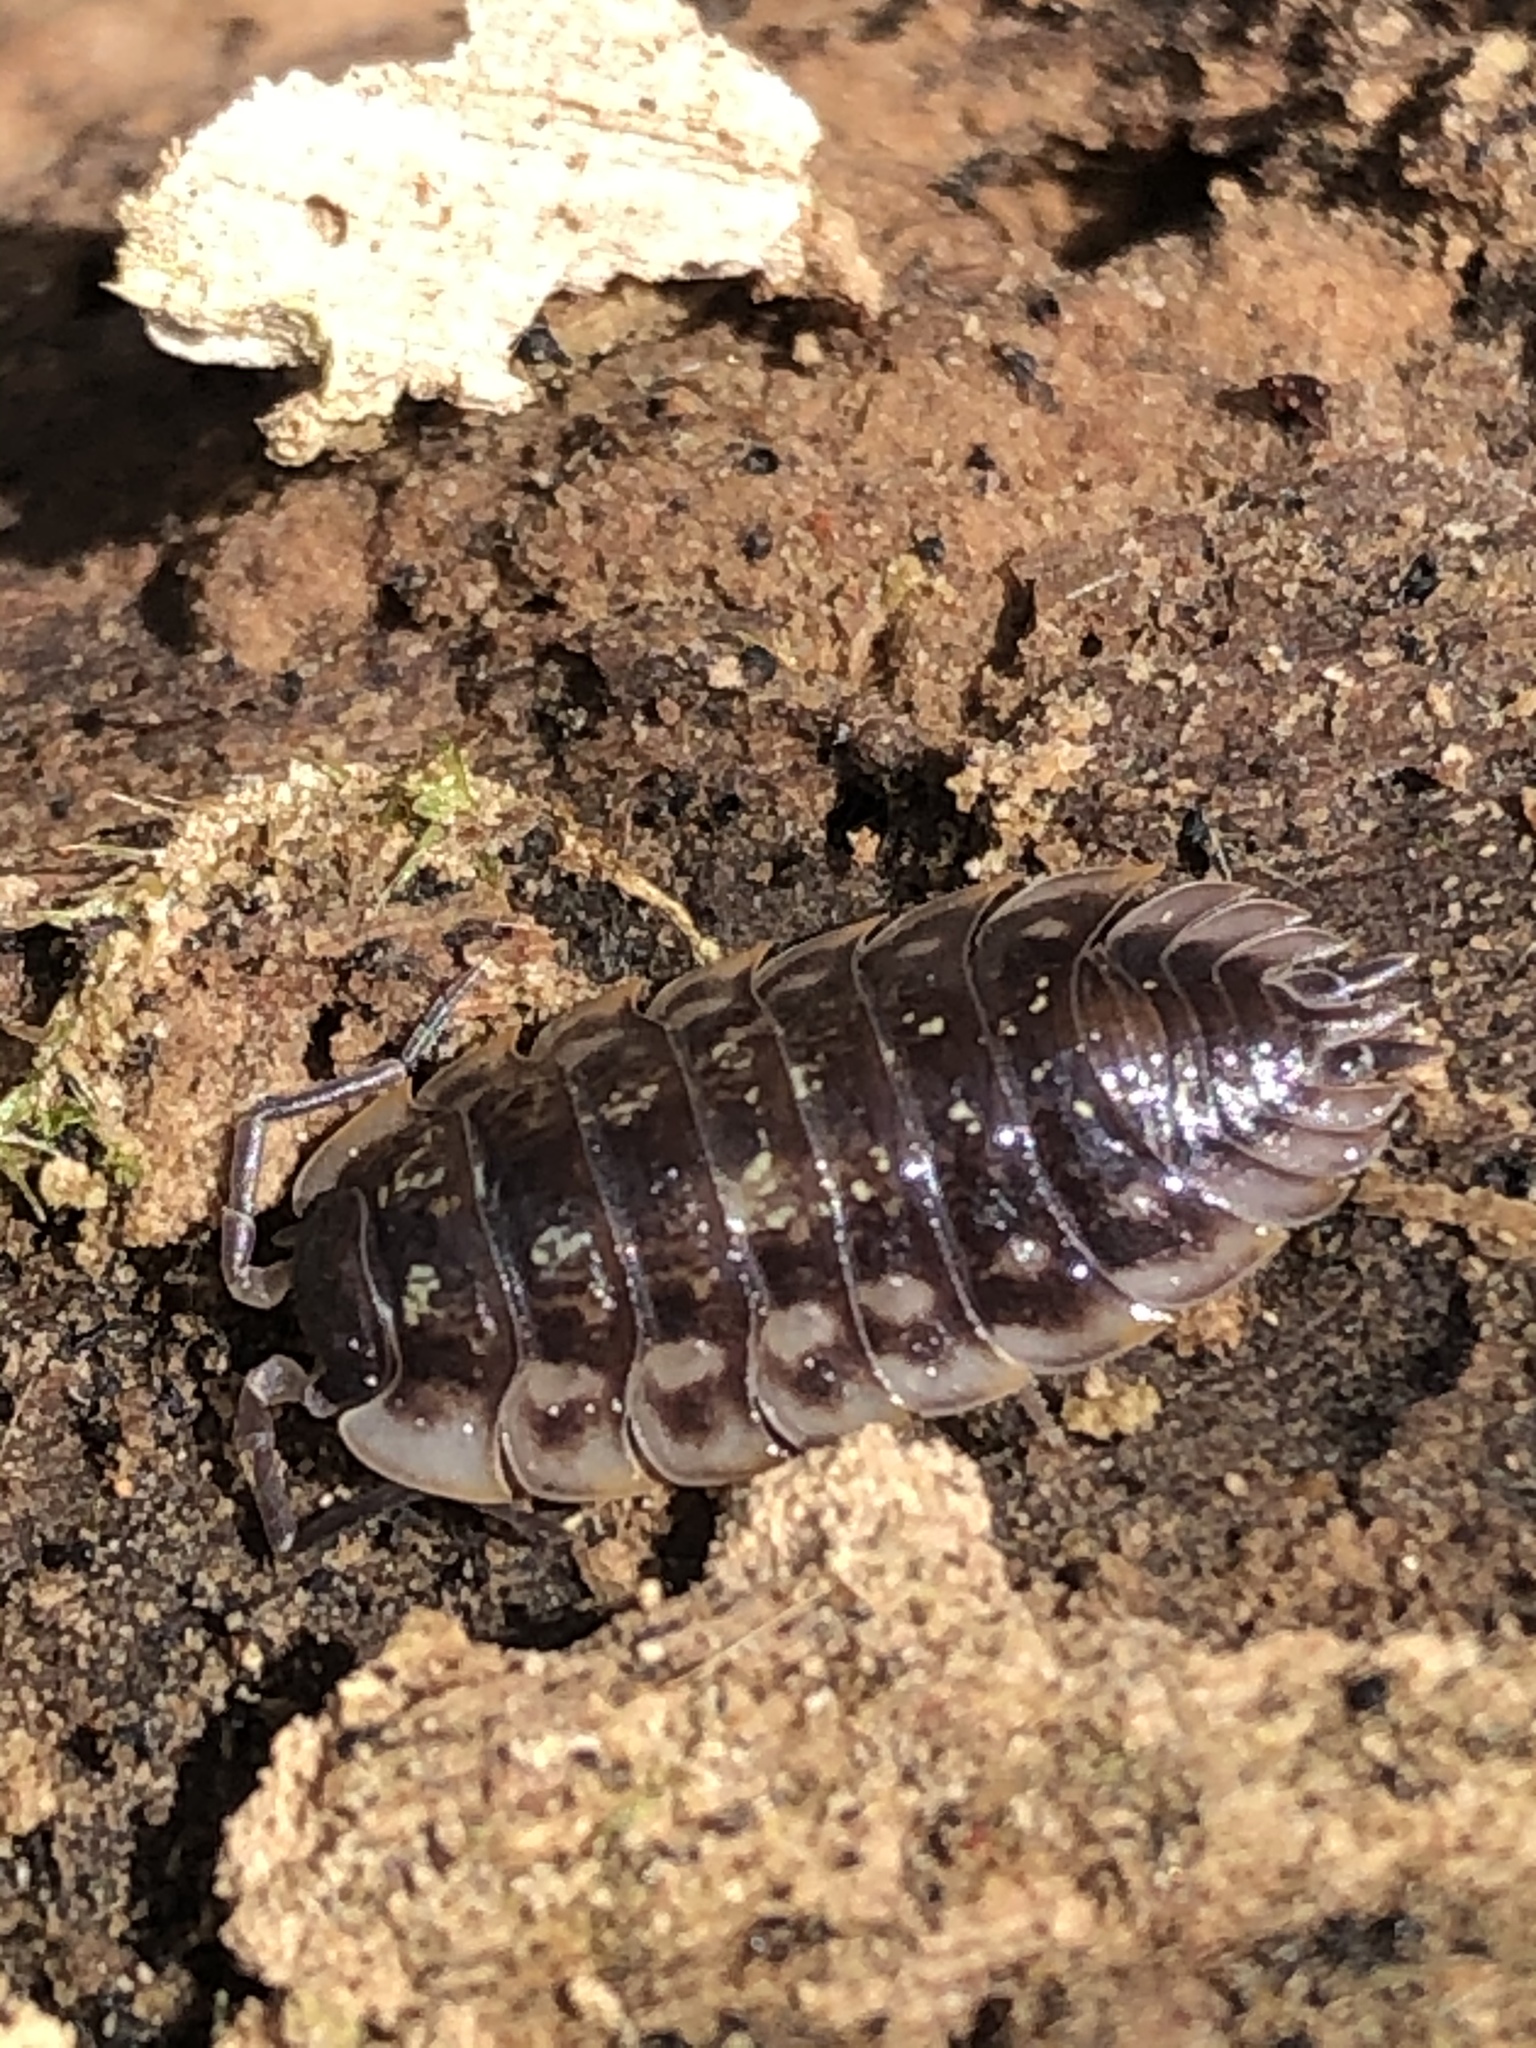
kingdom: Animalia
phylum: Arthropoda
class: Malacostraca
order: Isopoda
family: Oniscidae
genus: Oniscus
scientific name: Oniscus asellus
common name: Common shiny woodlouse
